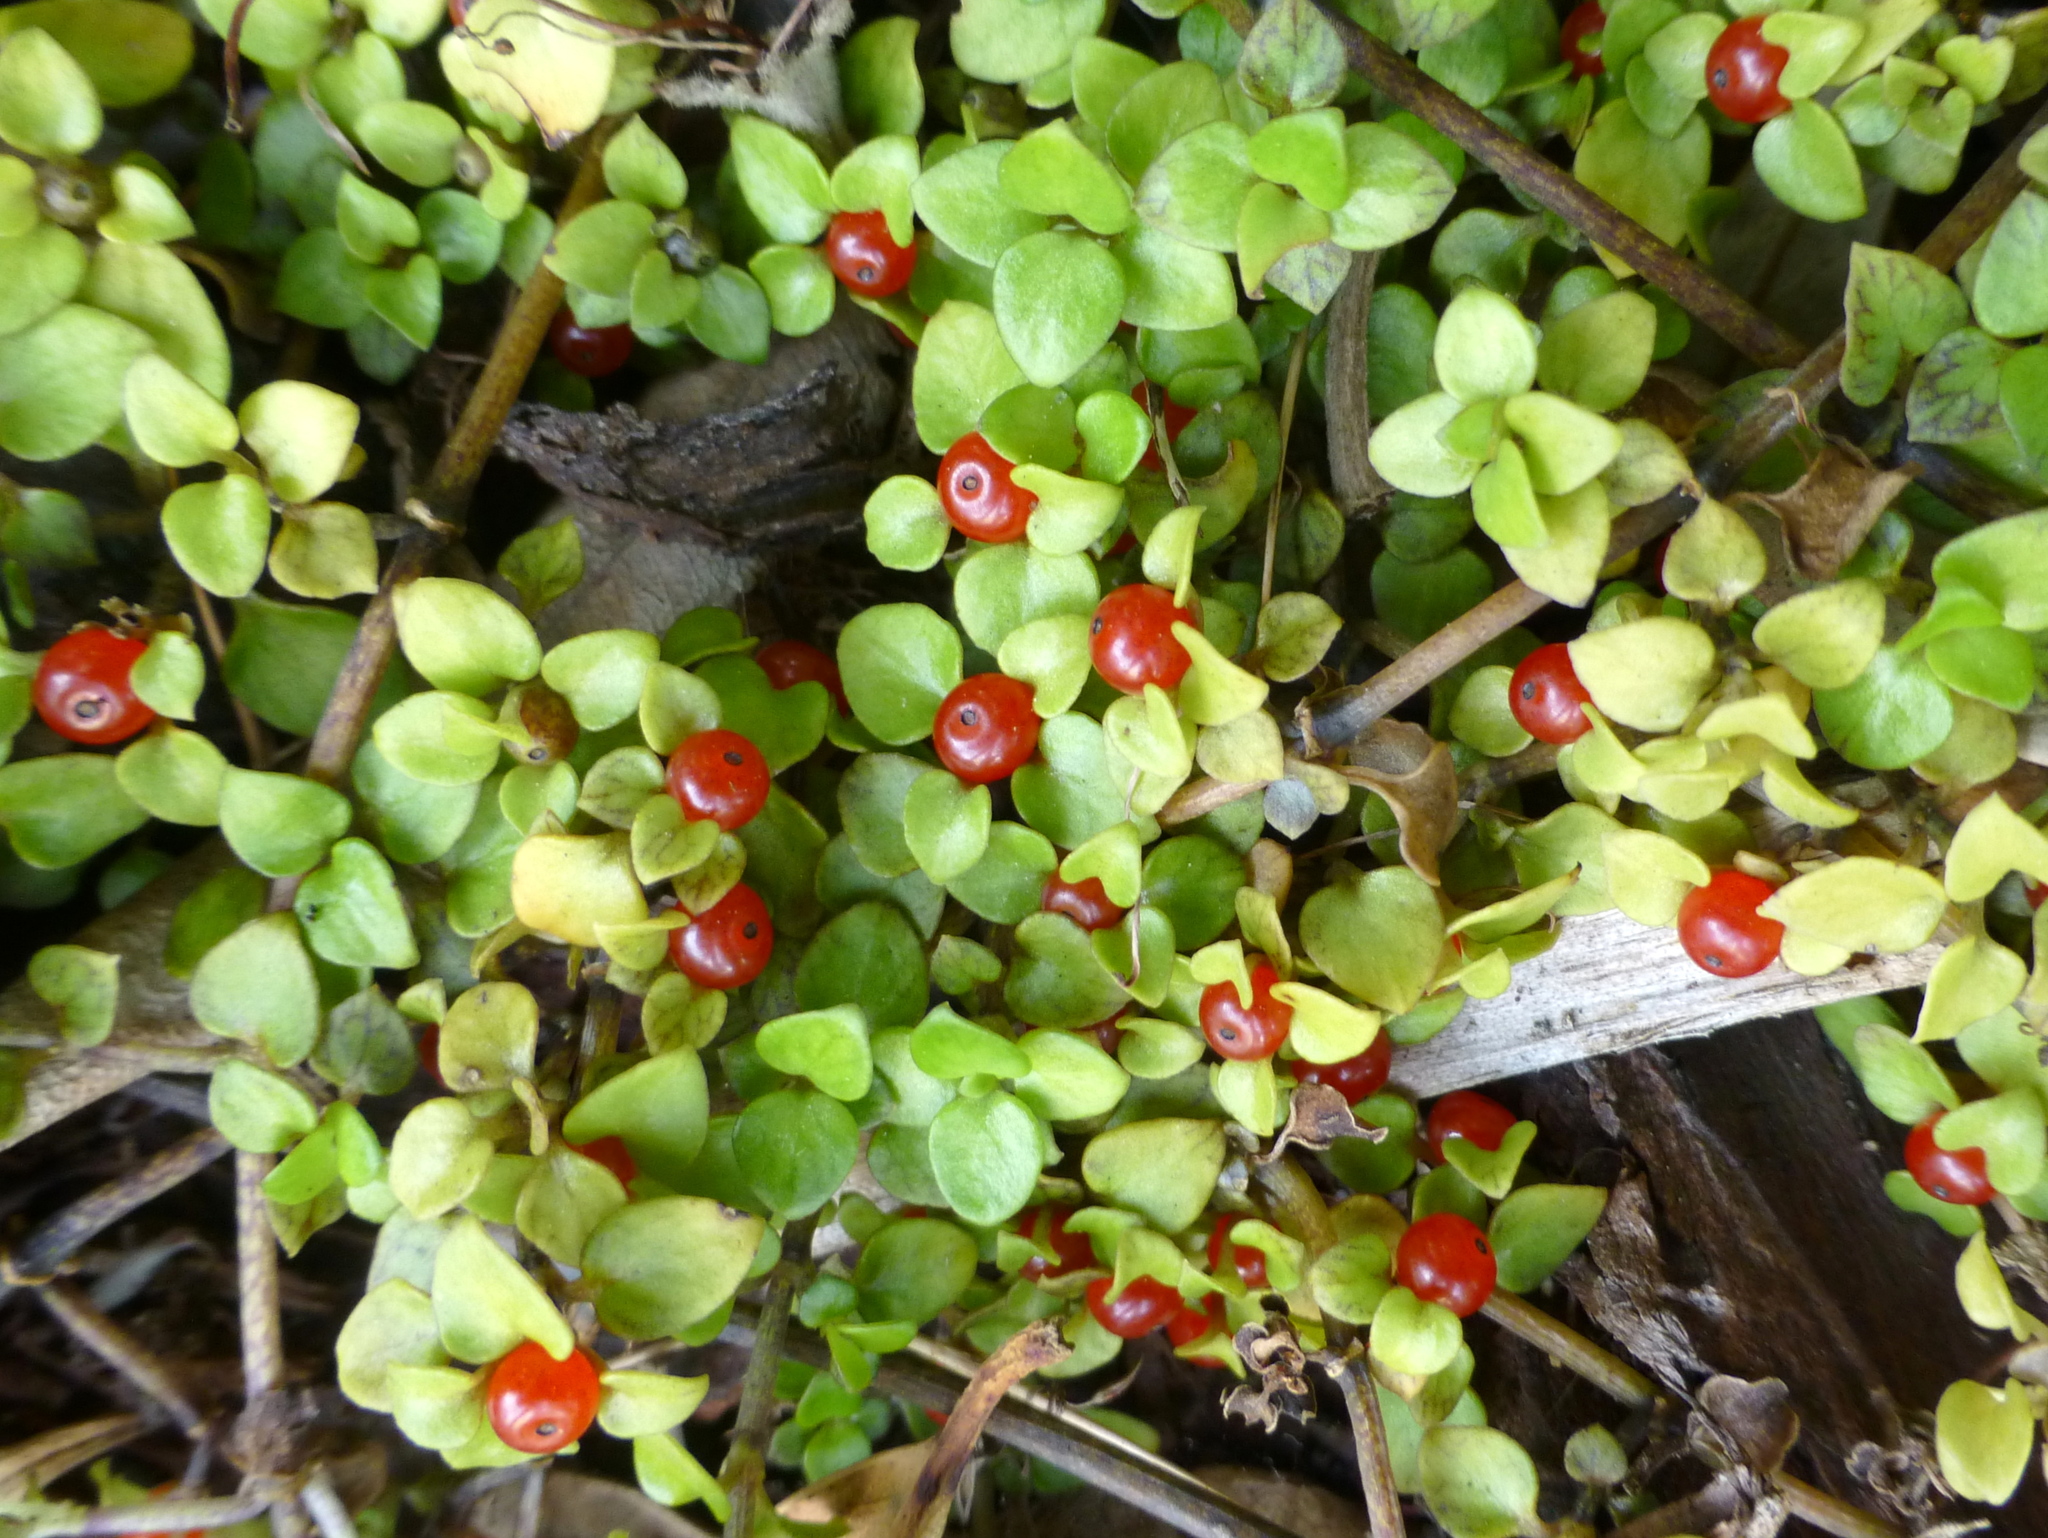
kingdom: Plantae
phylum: Tracheophyta
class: Magnoliopsida
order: Gentianales
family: Rubiaceae
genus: Nertera
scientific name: Nertera granadensis
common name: Beadplant
